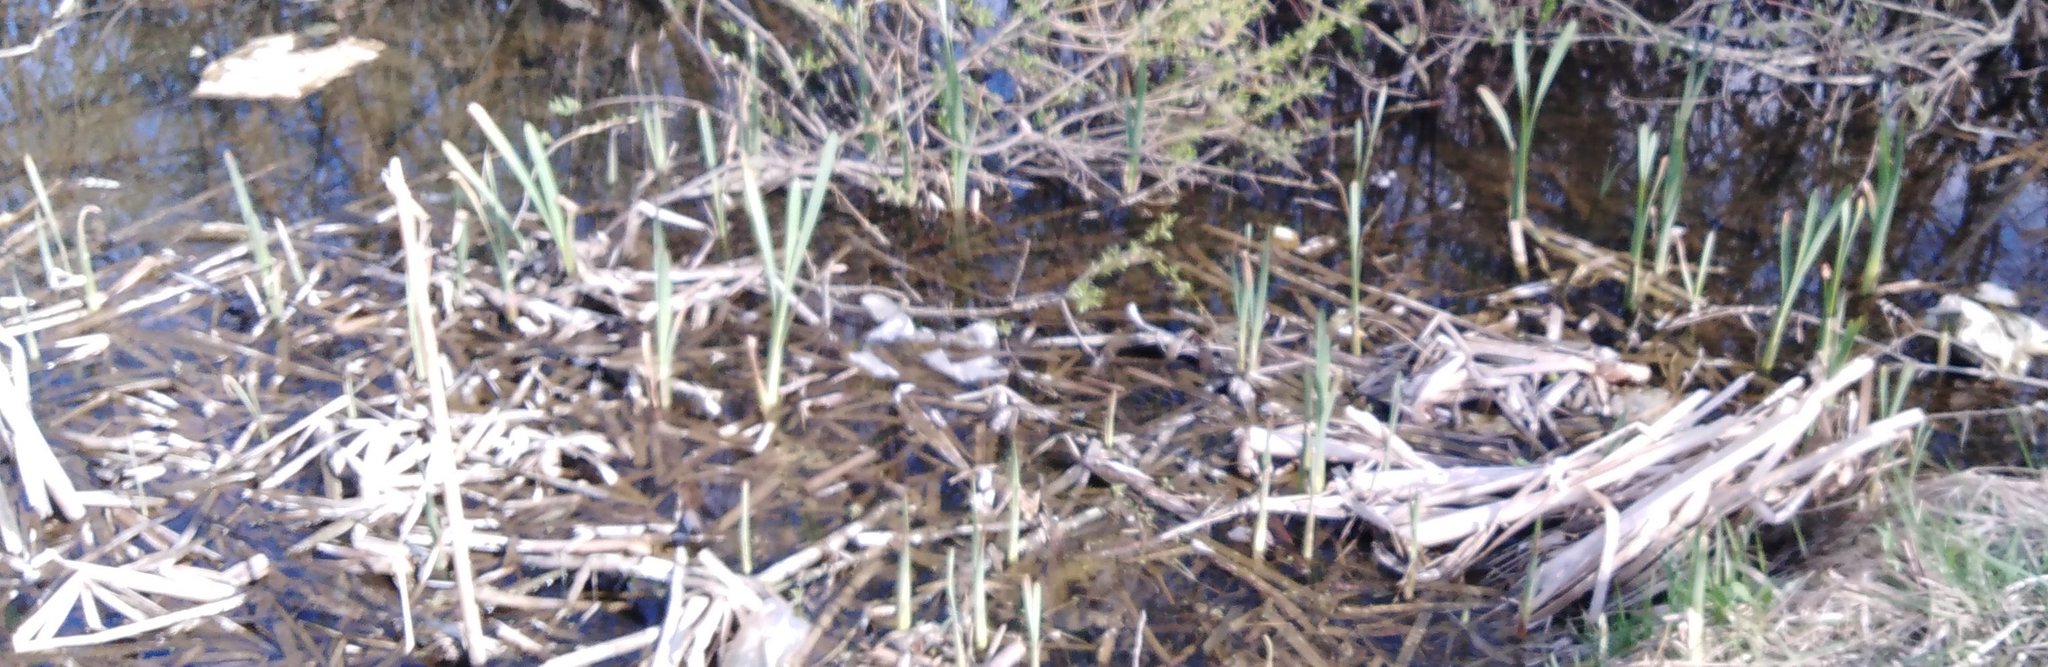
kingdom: Plantae
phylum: Tracheophyta
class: Liliopsida
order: Poales
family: Typhaceae
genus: Typha
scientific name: Typha latifolia
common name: Broadleaf cattail
